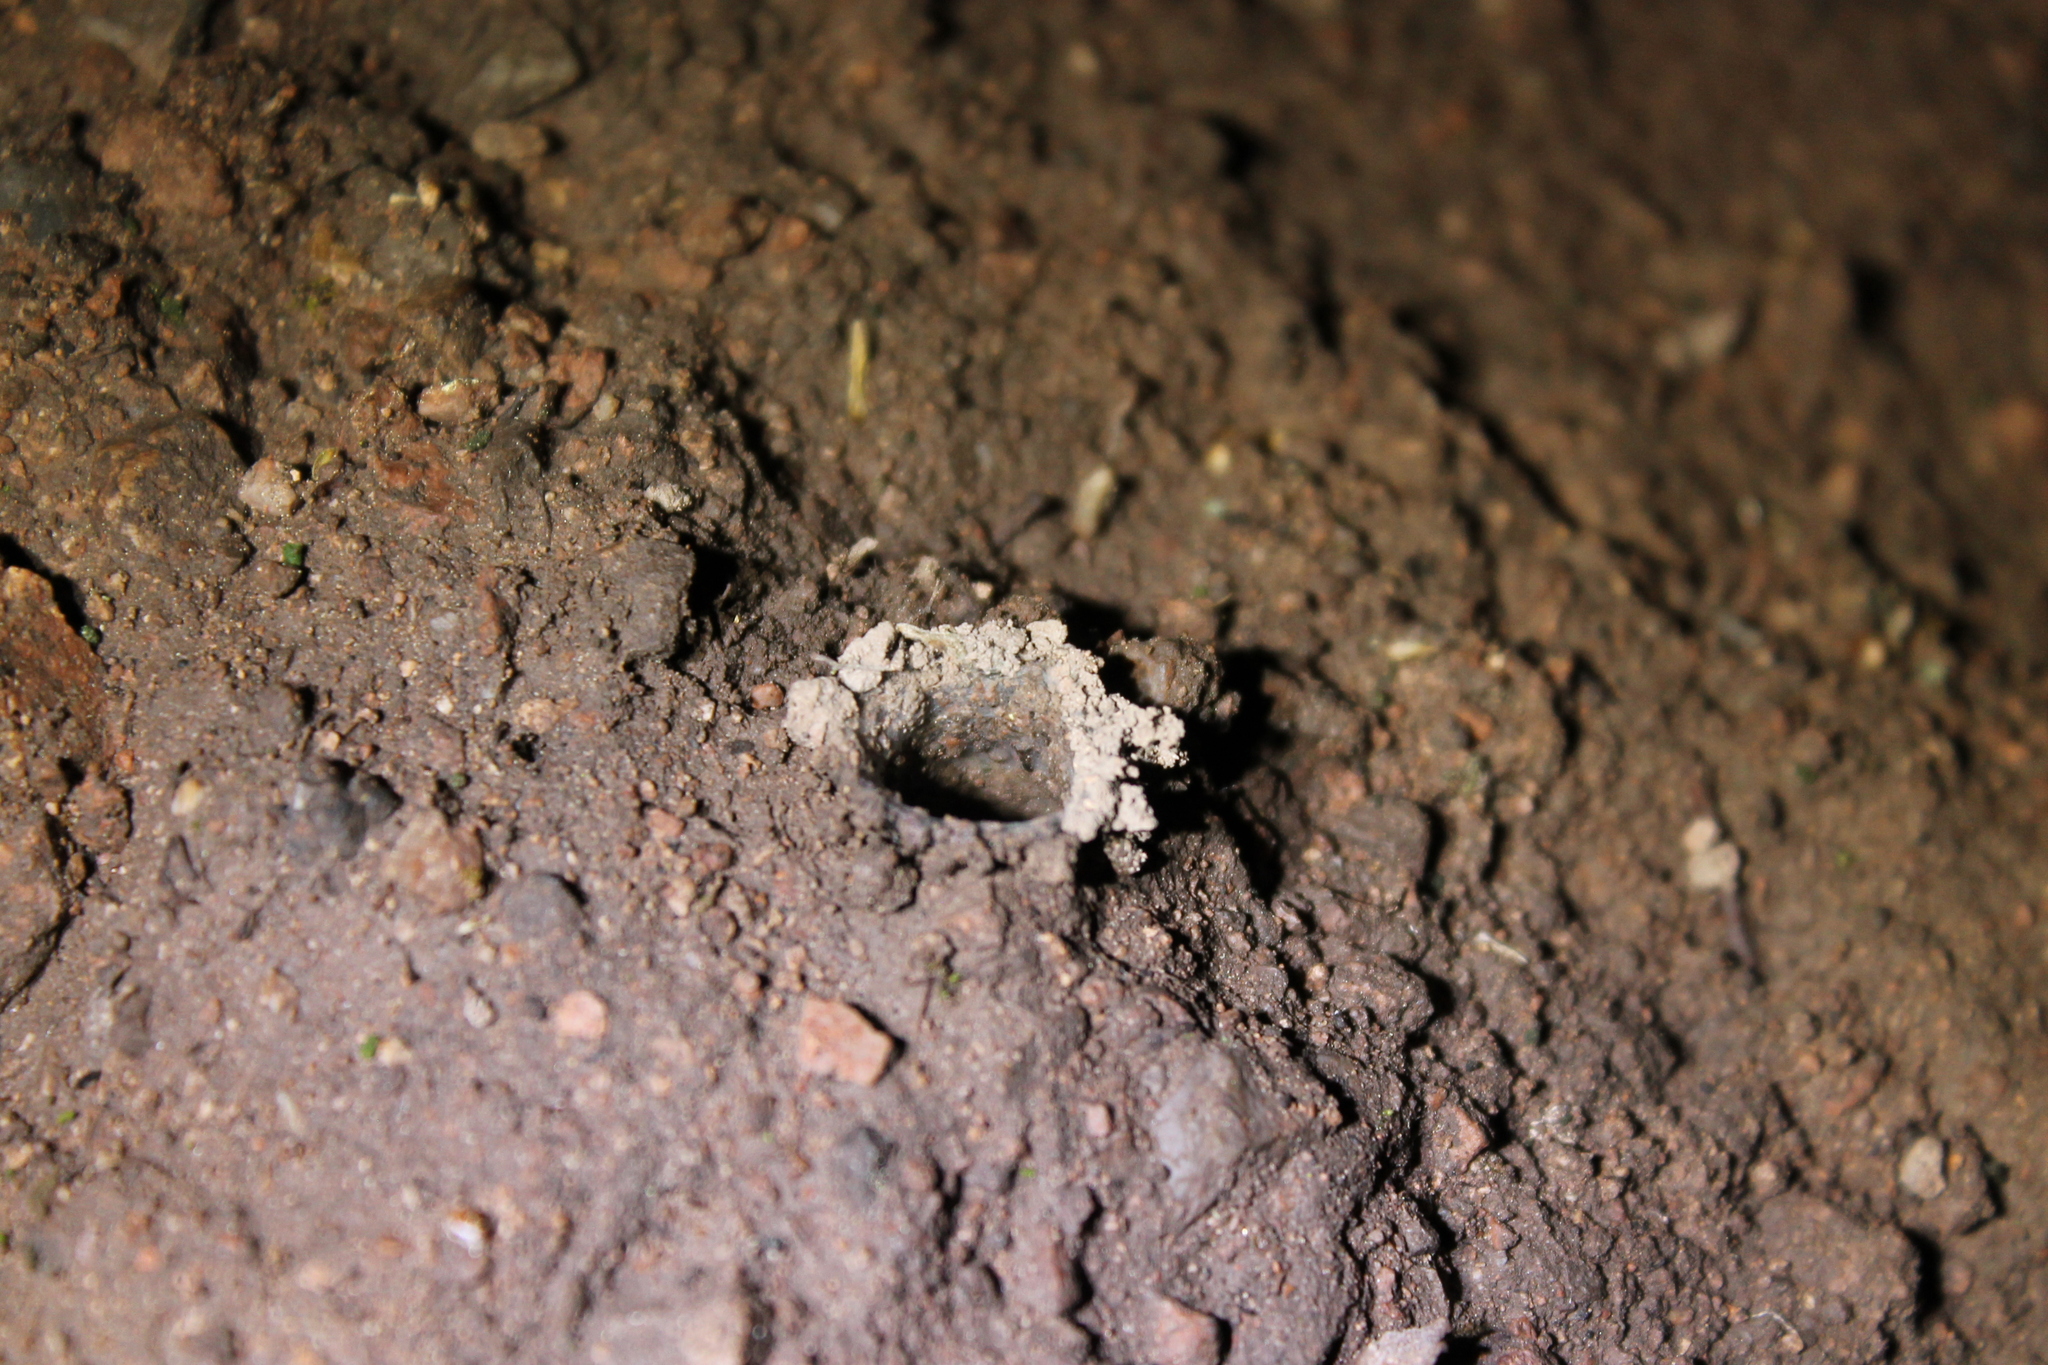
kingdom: Animalia
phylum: Arthropoda
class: Arachnida
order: Araneae
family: Antrodiaetidae
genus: Atypoides
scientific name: Atypoides riversi
